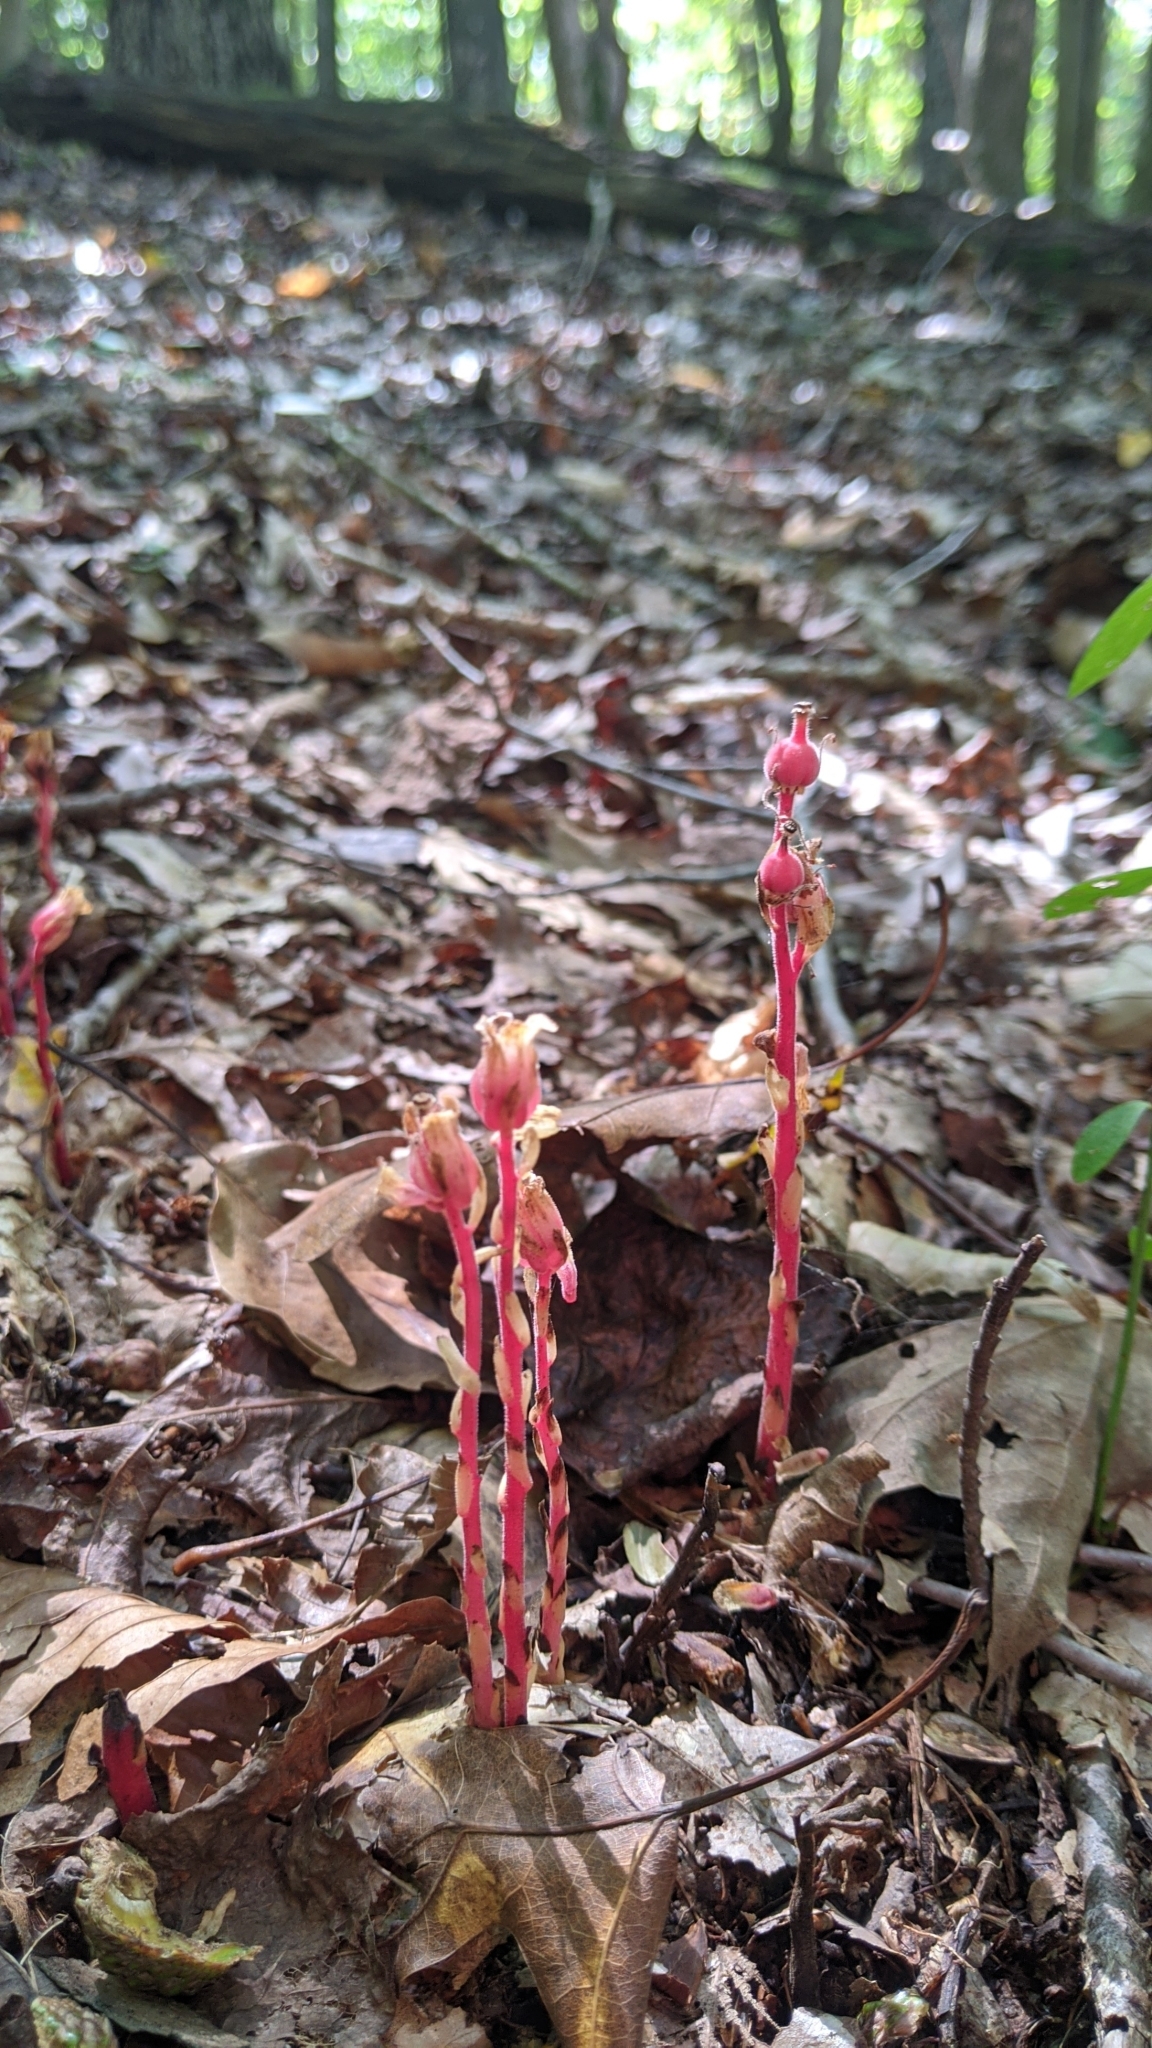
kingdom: Plantae
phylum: Tracheophyta
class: Magnoliopsida
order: Ericales
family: Ericaceae
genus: Hypopitys
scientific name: Hypopitys monotropa
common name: Yellow bird's-nest
